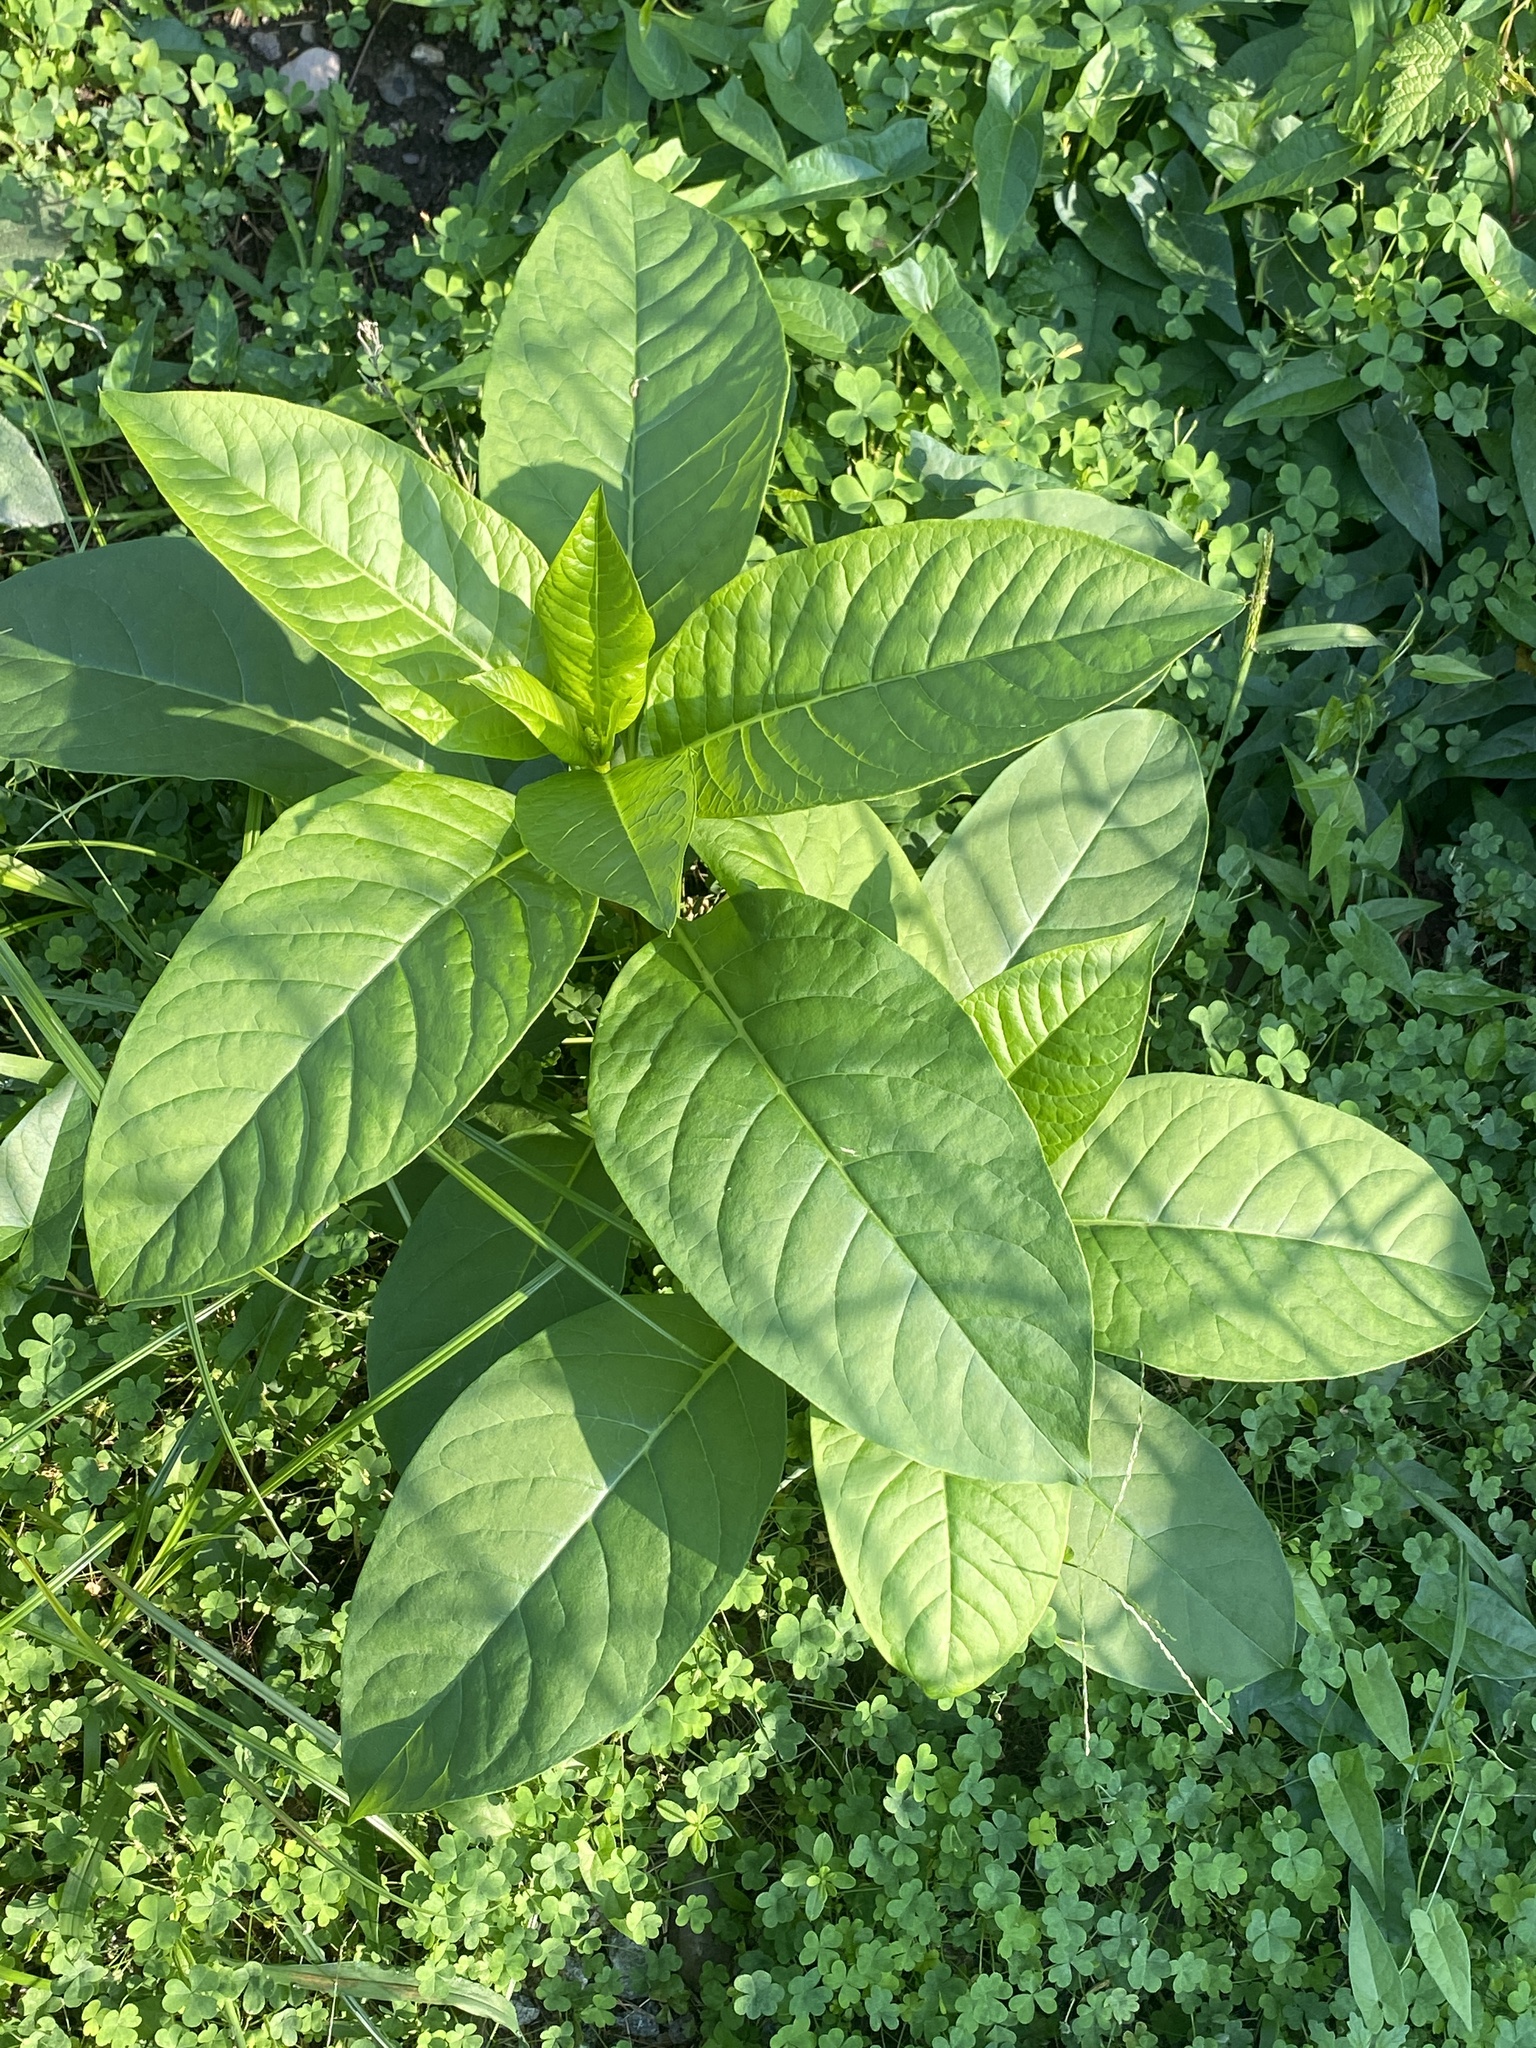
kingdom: Plantae
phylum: Tracheophyta
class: Magnoliopsida
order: Caryophyllales
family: Phytolaccaceae
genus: Phytolacca
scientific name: Phytolacca americana
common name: American pokeweed
